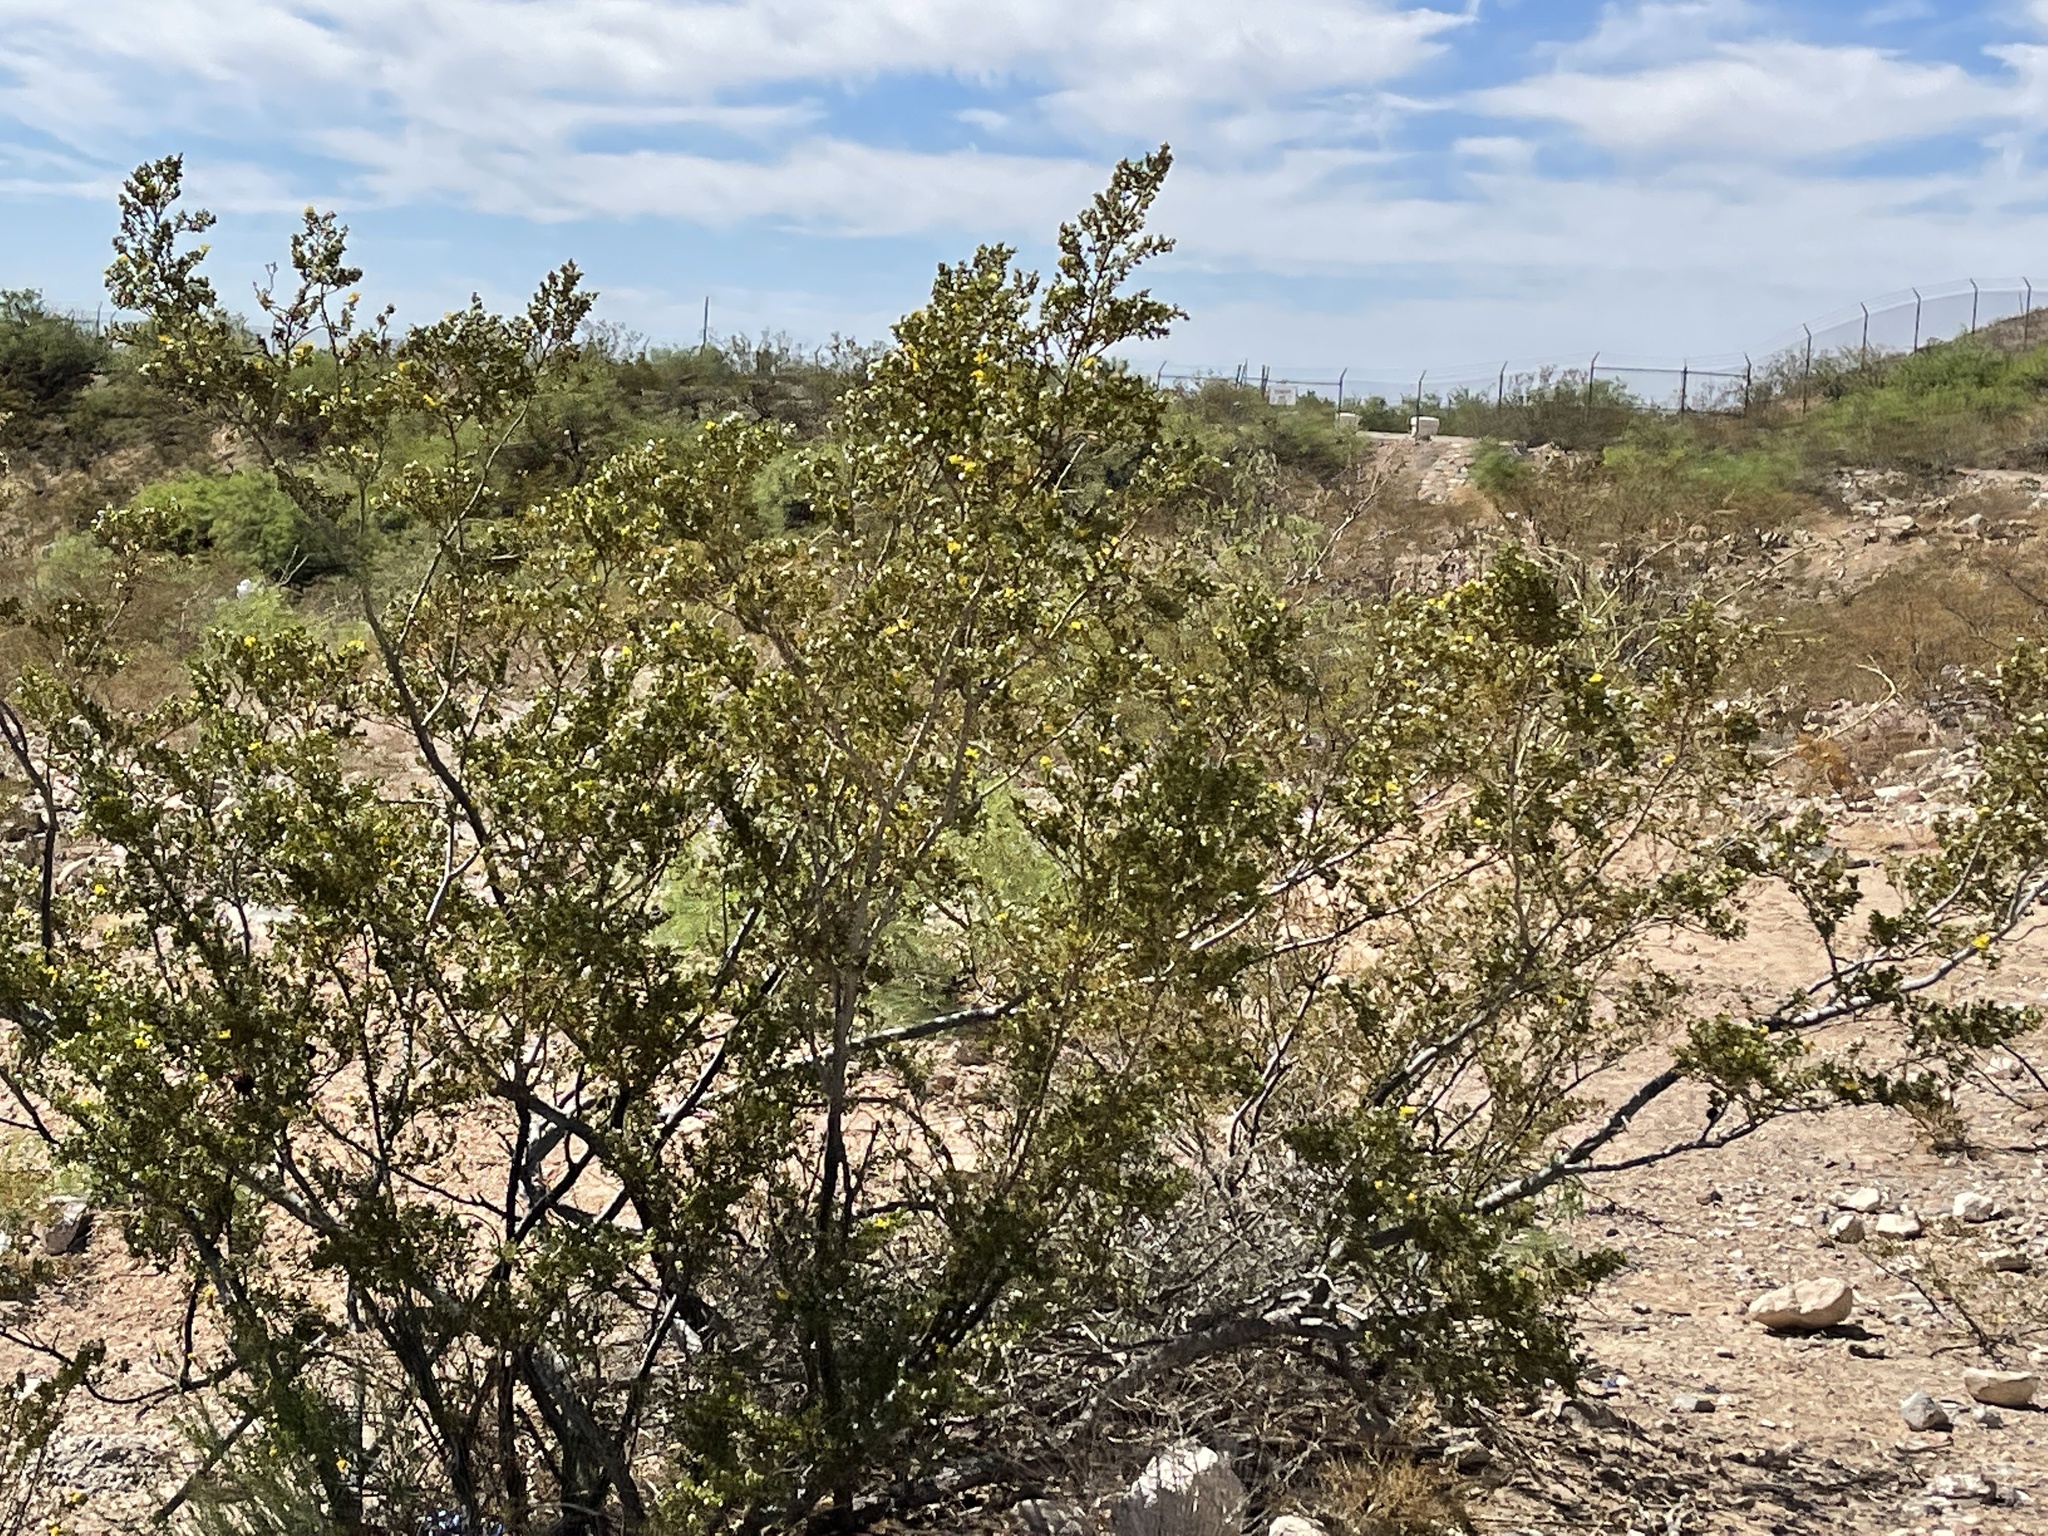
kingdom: Plantae
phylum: Tracheophyta
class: Magnoliopsida
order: Zygophyllales
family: Zygophyllaceae
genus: Larrea
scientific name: Larrea tridentata
